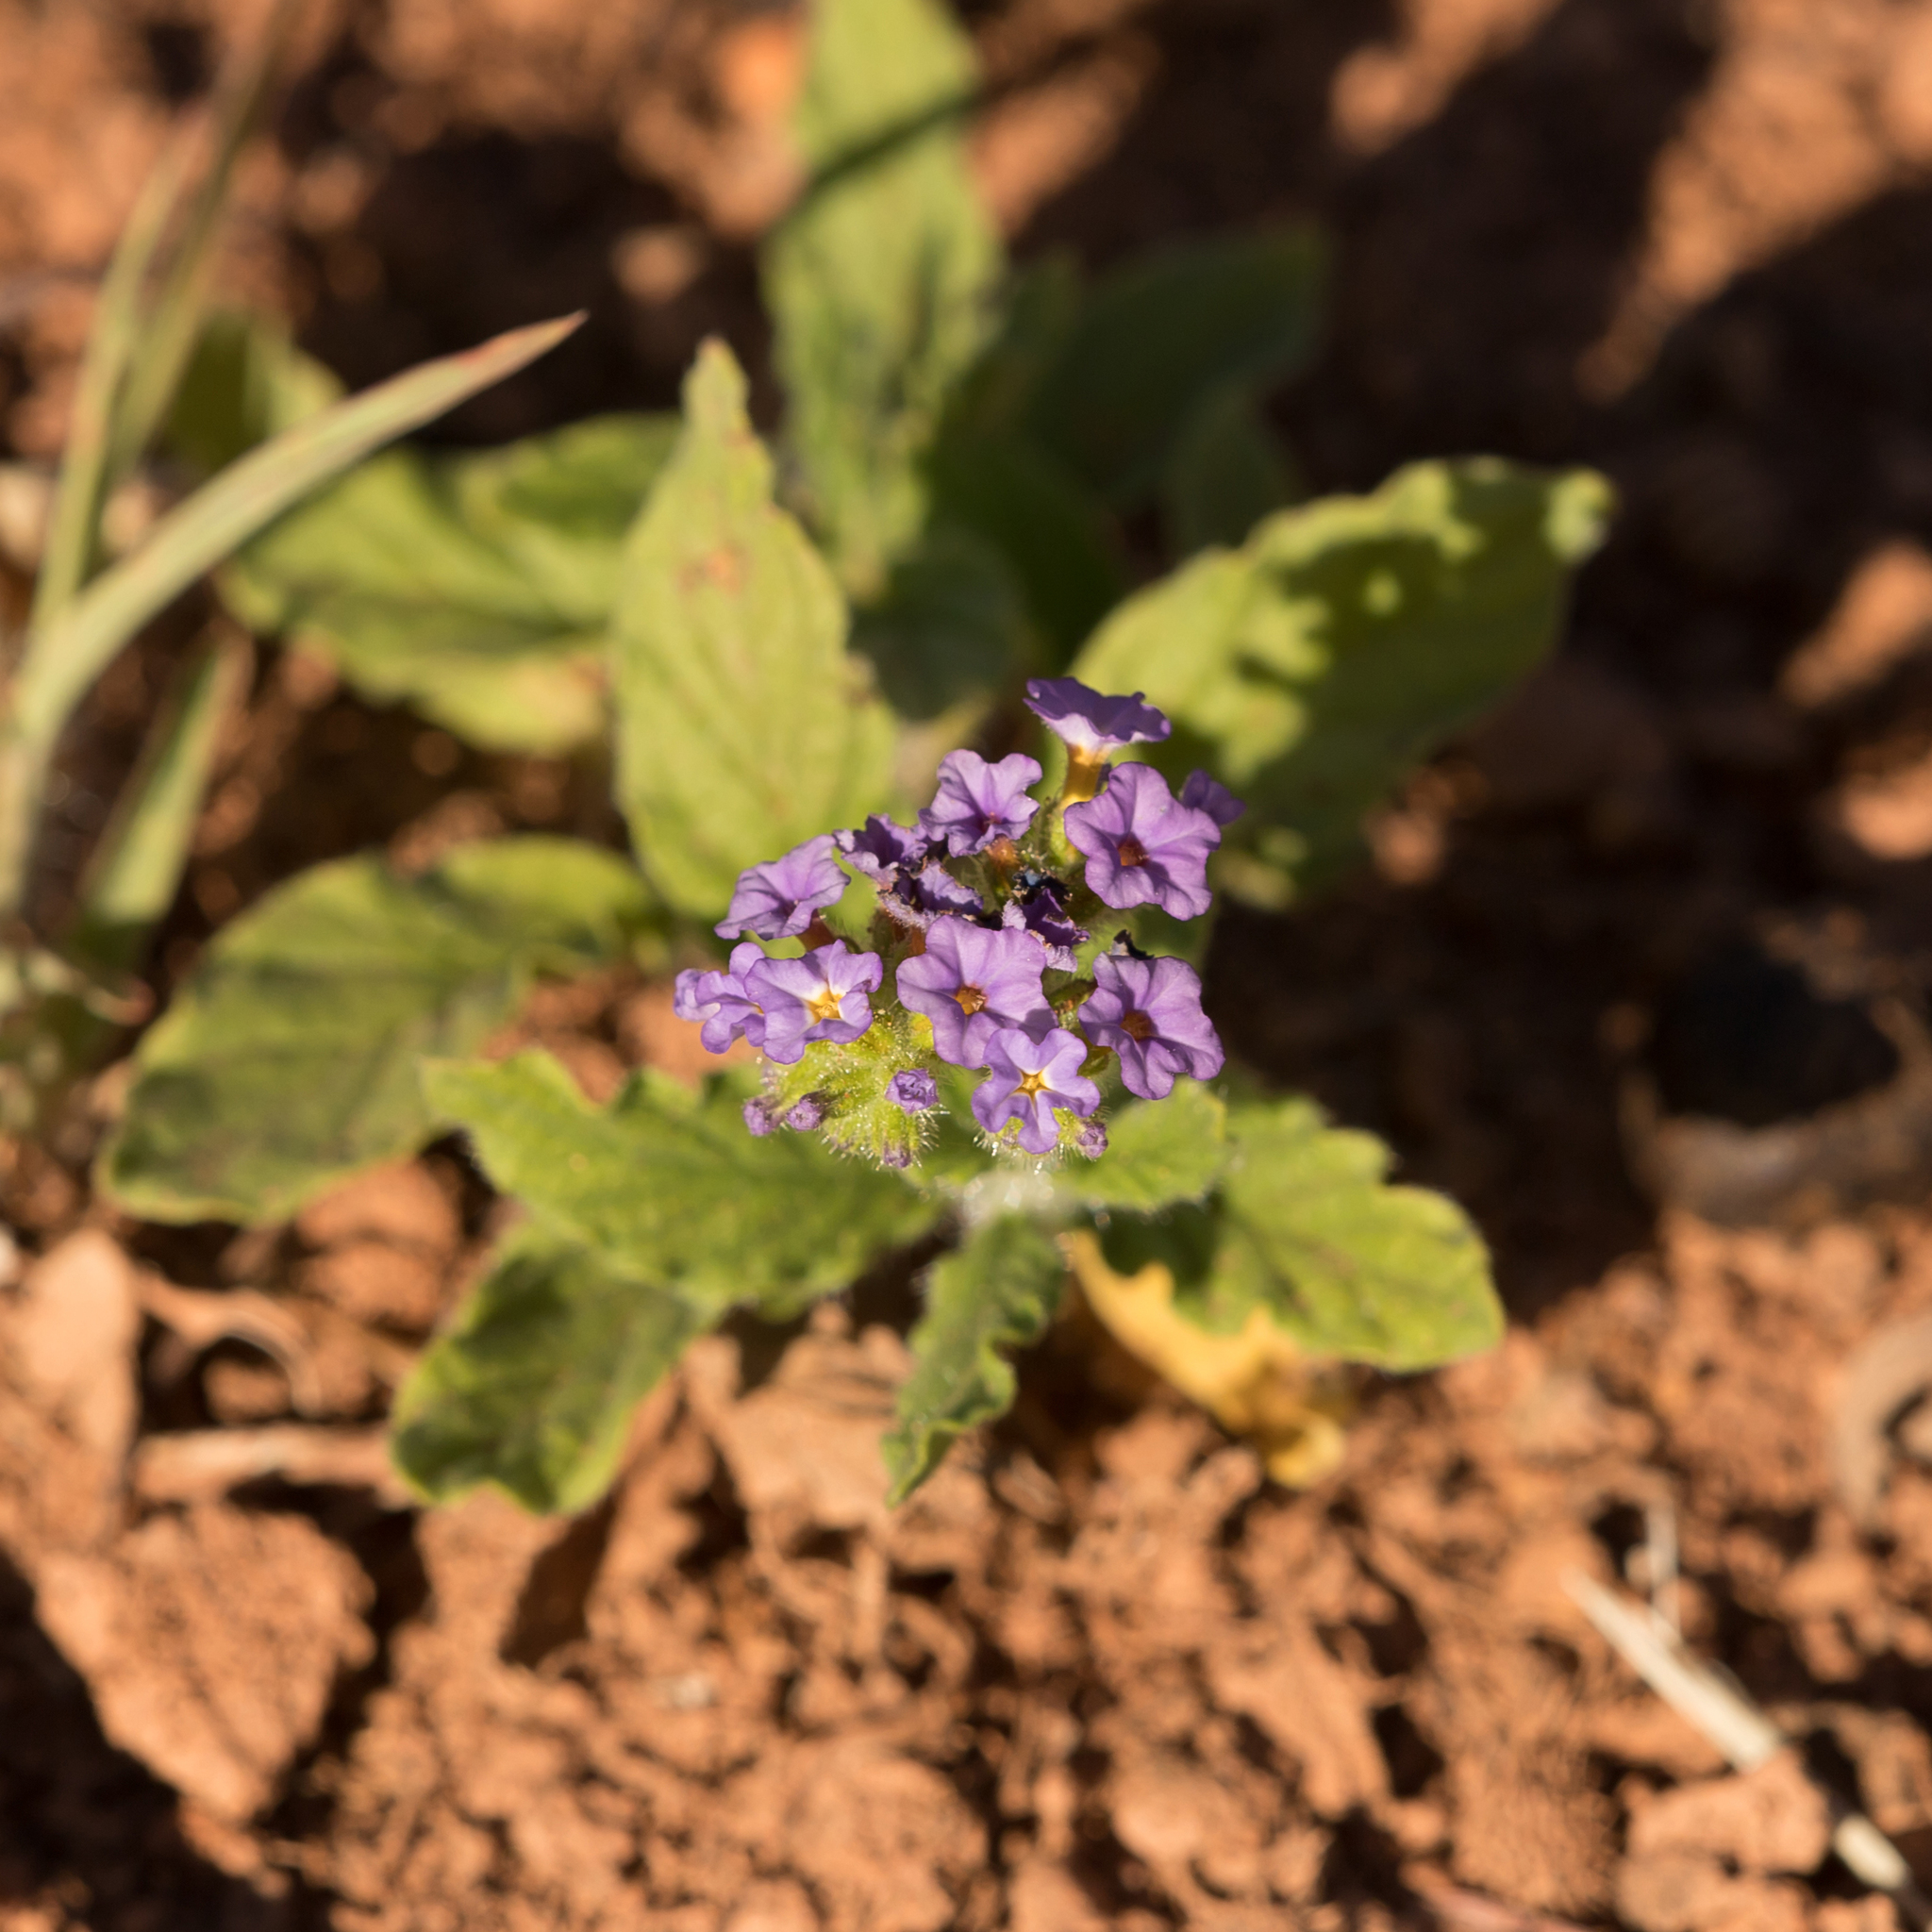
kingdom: Plantae
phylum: Tracheophyta
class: Magnoliopsida
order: Boraginales
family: Heliotropiaceae
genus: Heliotropium
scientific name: Heliotropium amplexicaule
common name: Clasping heliotrope
